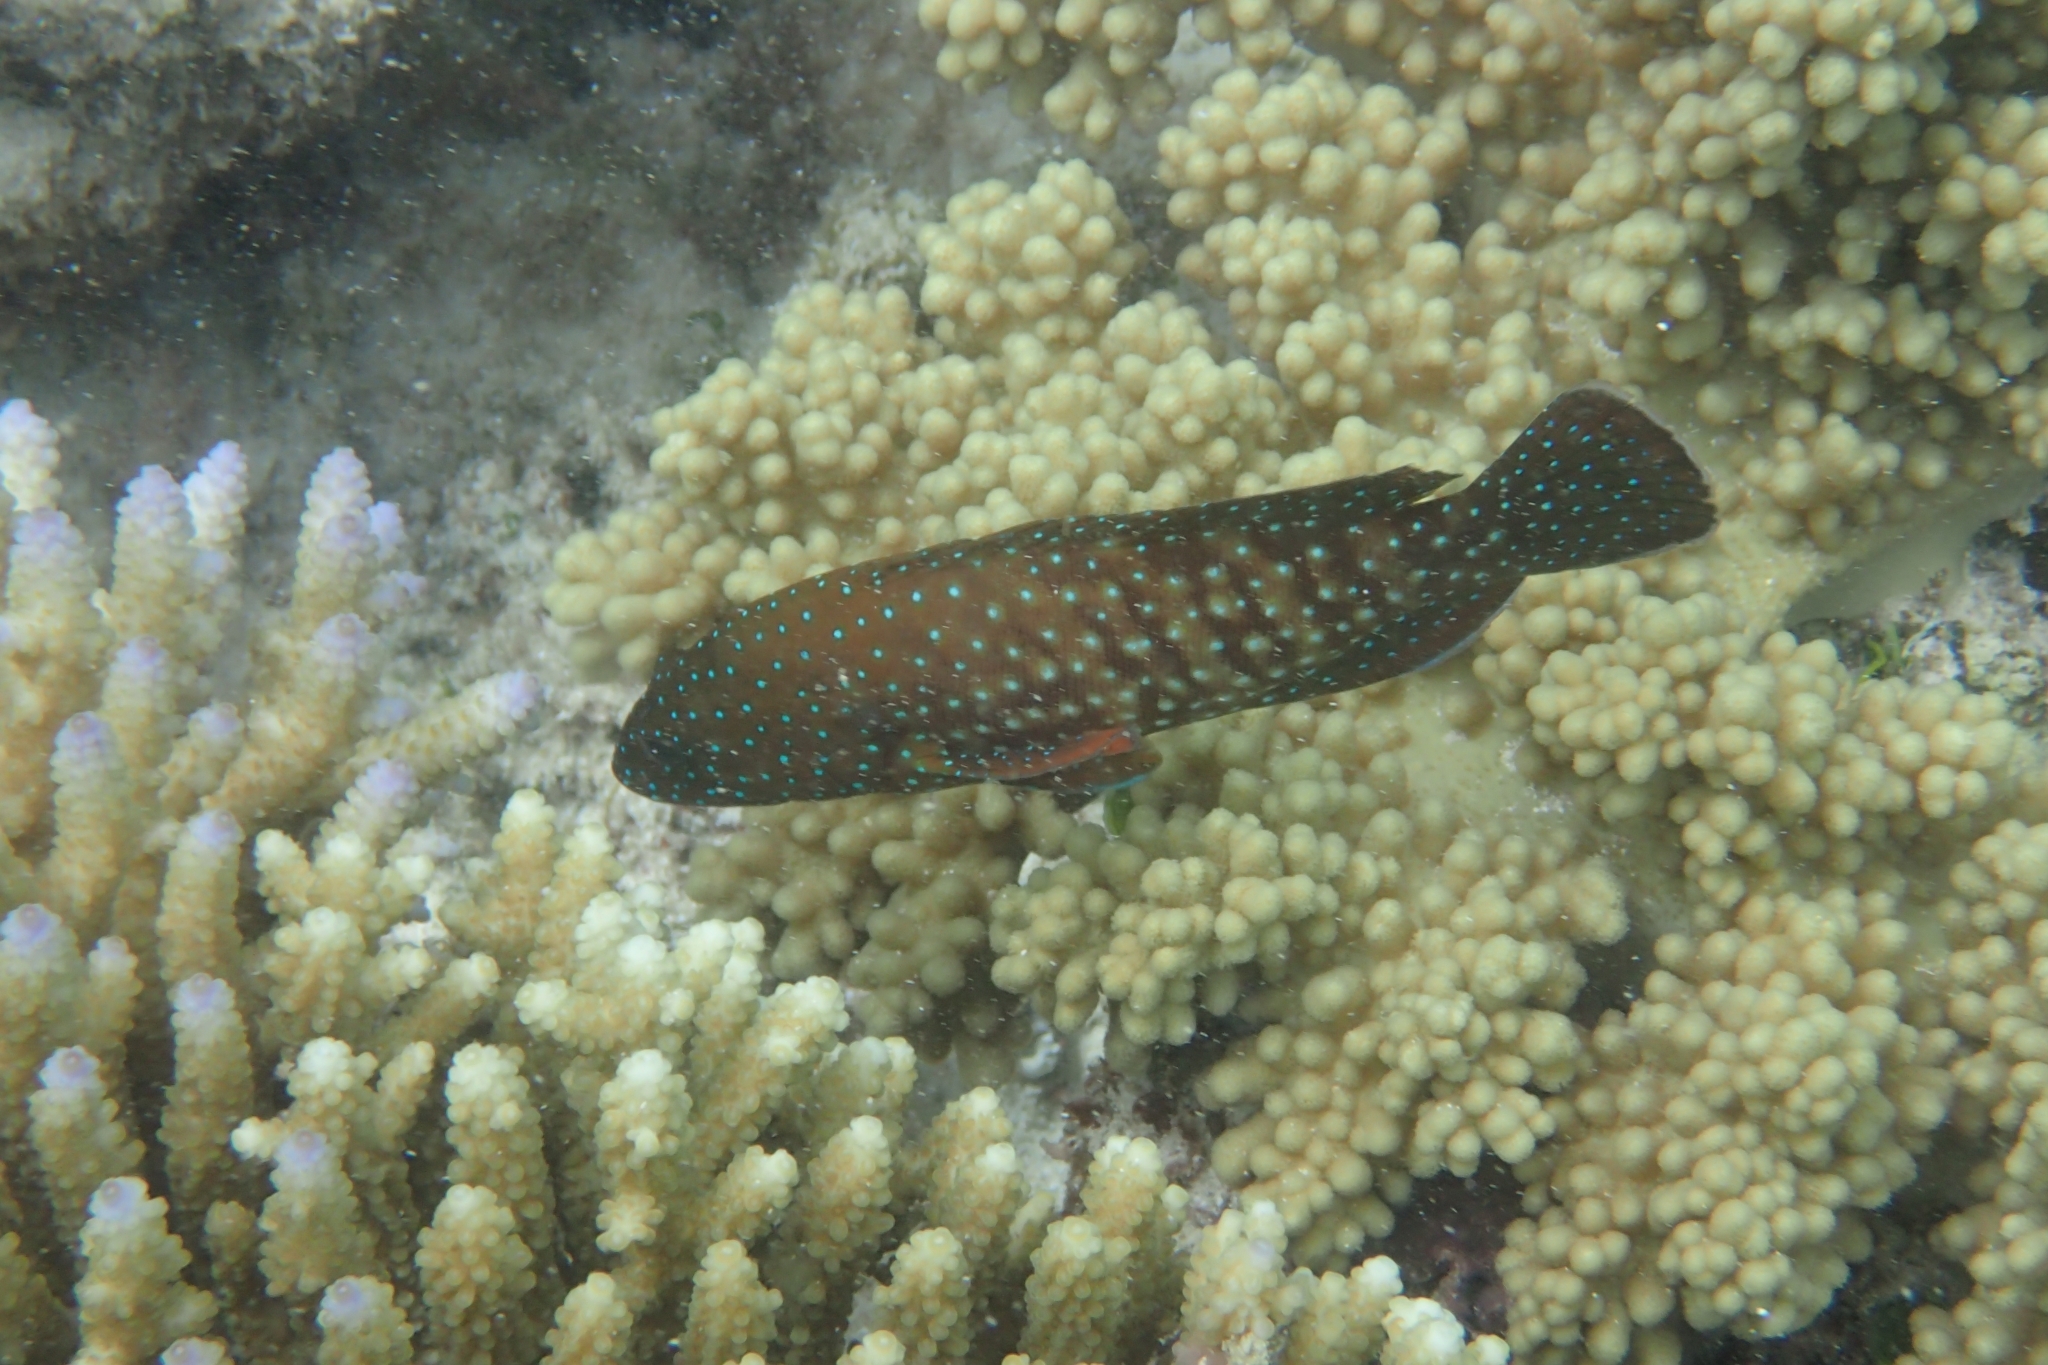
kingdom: Animalia
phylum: Chordata
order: Perciformes
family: Serranidae
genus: Cephalopholis
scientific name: Cephalopholis cyanostigma
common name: Bluespotted hind
